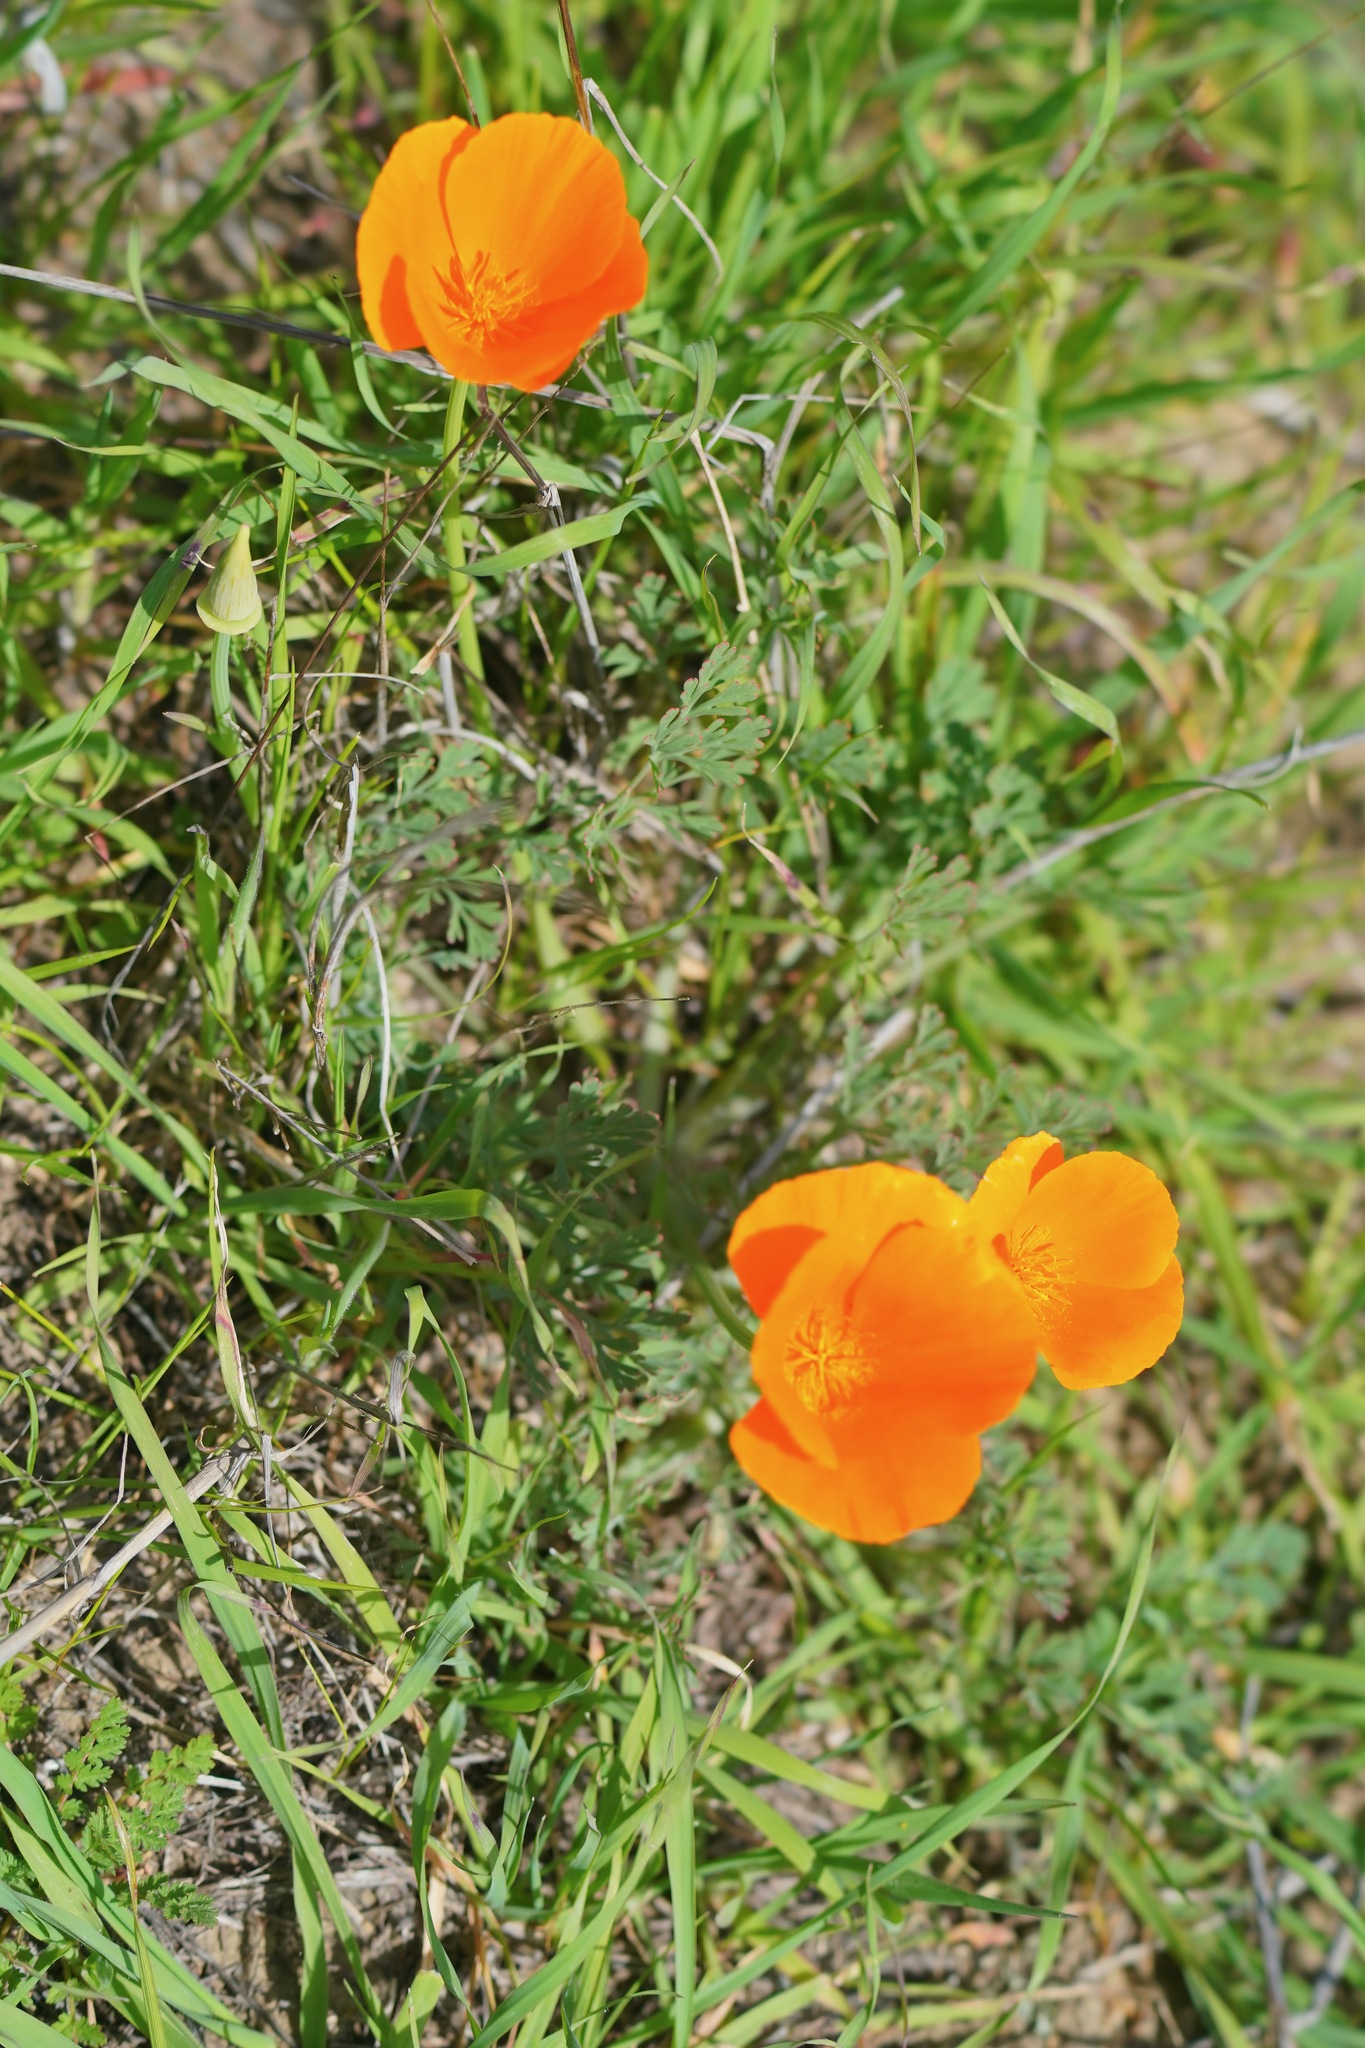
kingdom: Plantae
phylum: Tracheophyta
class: Magnoliopsida
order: Ranunculales
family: Papaveraceae
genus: Eschscholzia
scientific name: Eschscholzia californica
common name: California poppy
